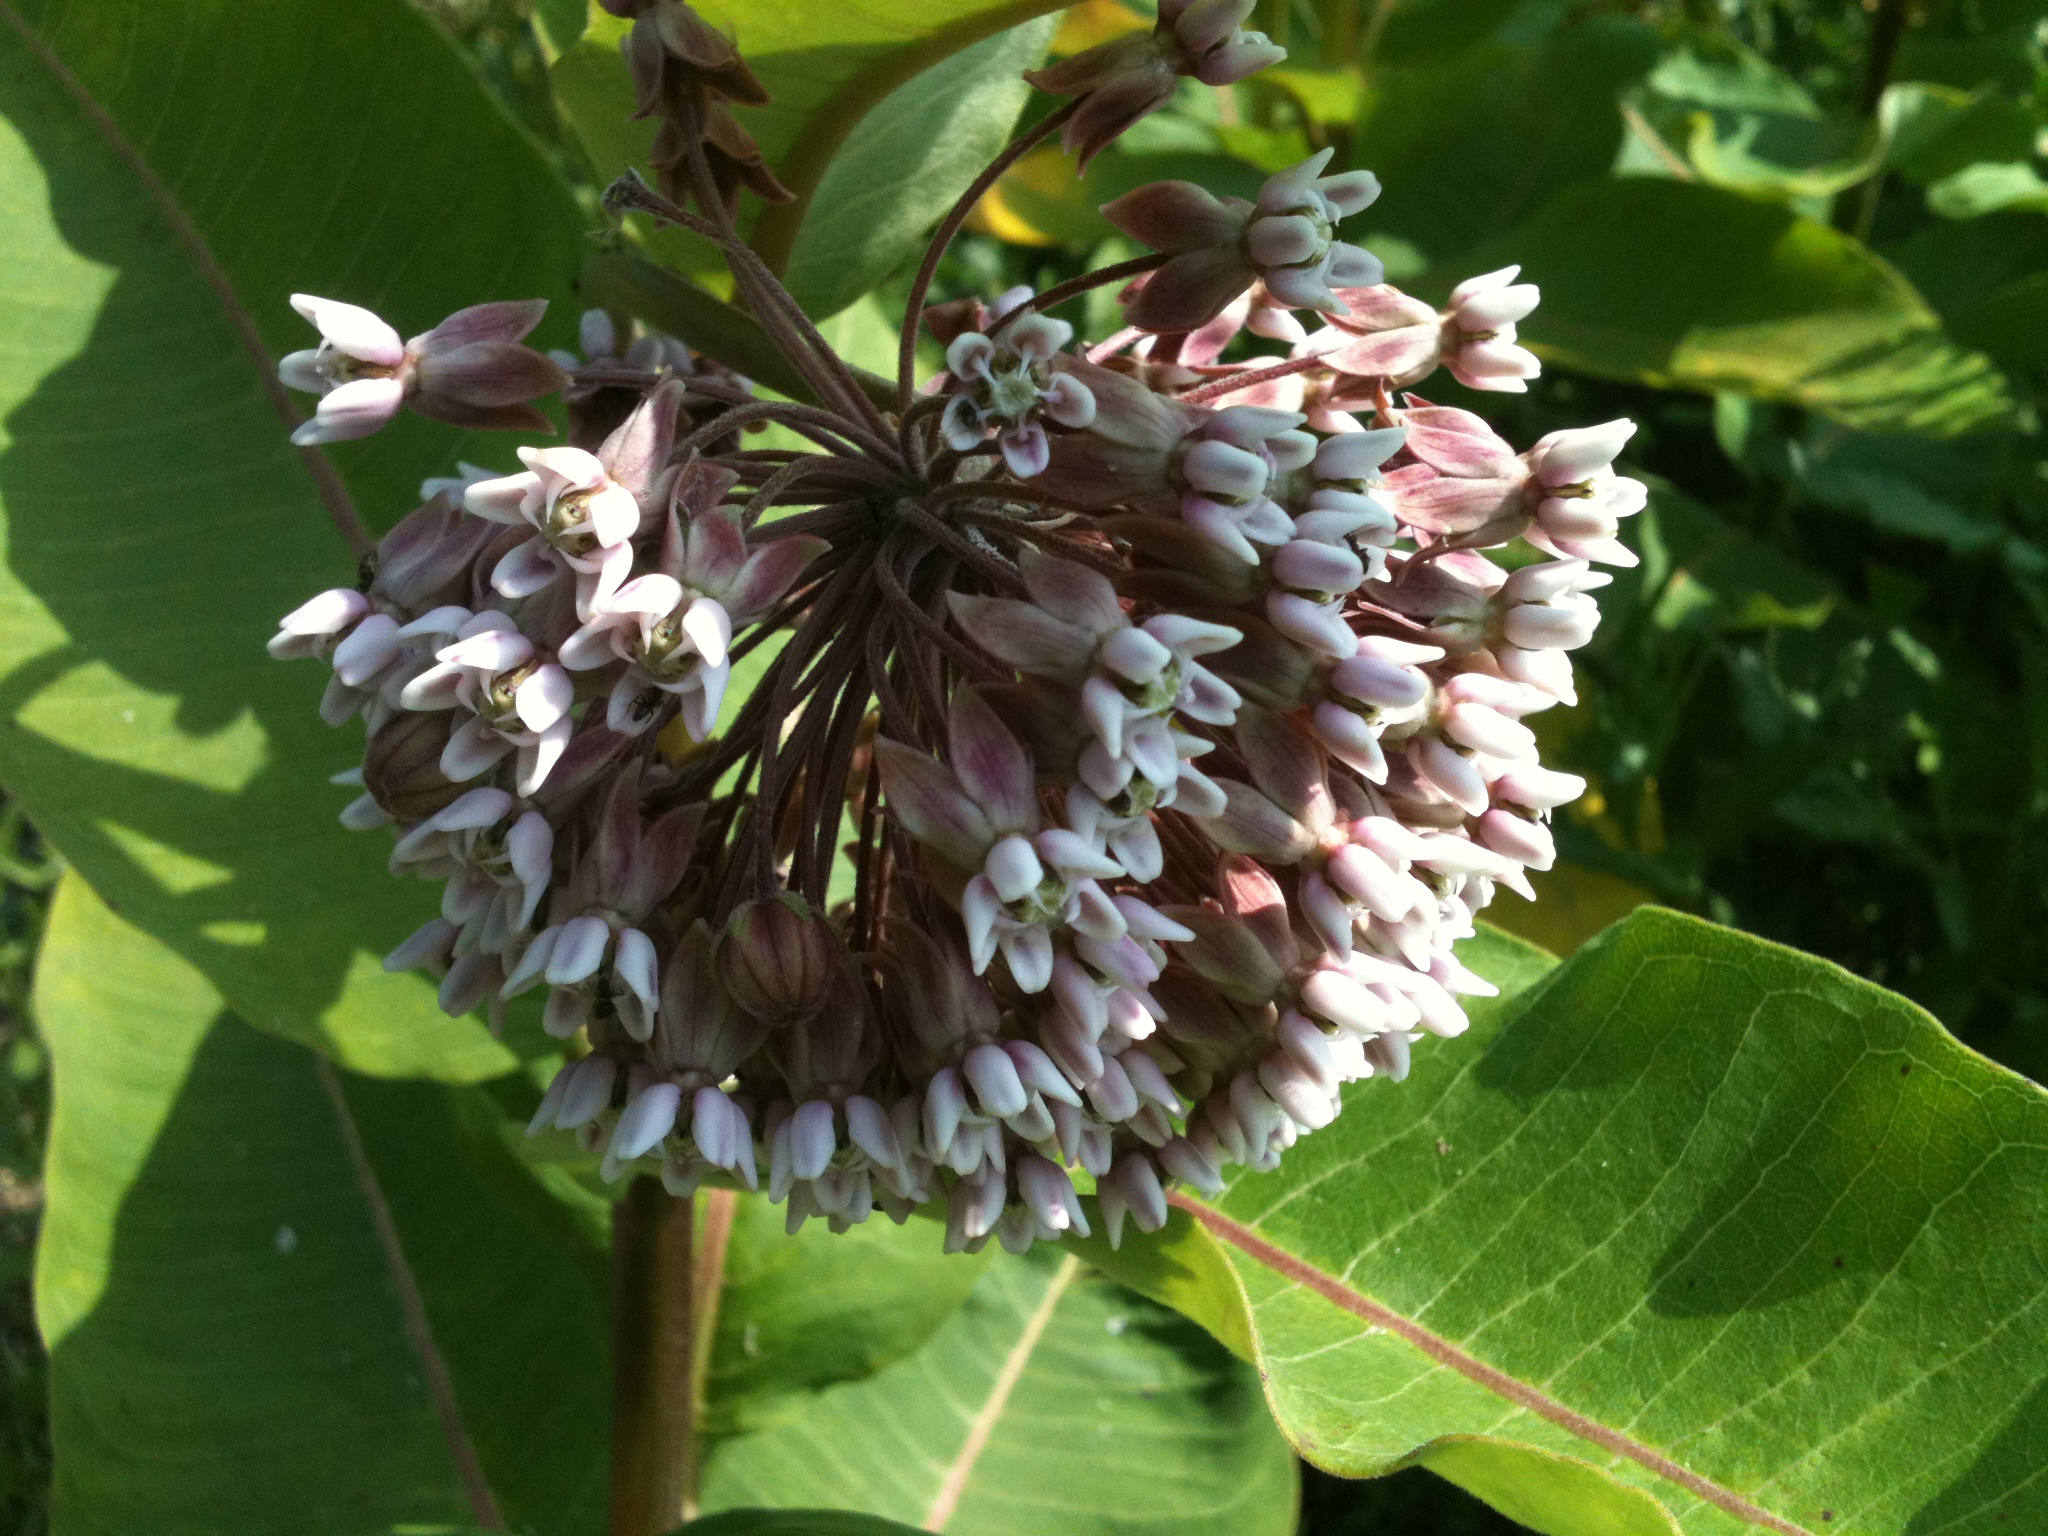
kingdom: Plantae
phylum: Tracheophyta
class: Magnoliopsida
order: Gentianales
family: Apocynaceae
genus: Asclepias
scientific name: Asclepias syriaca
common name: Common milkweed
